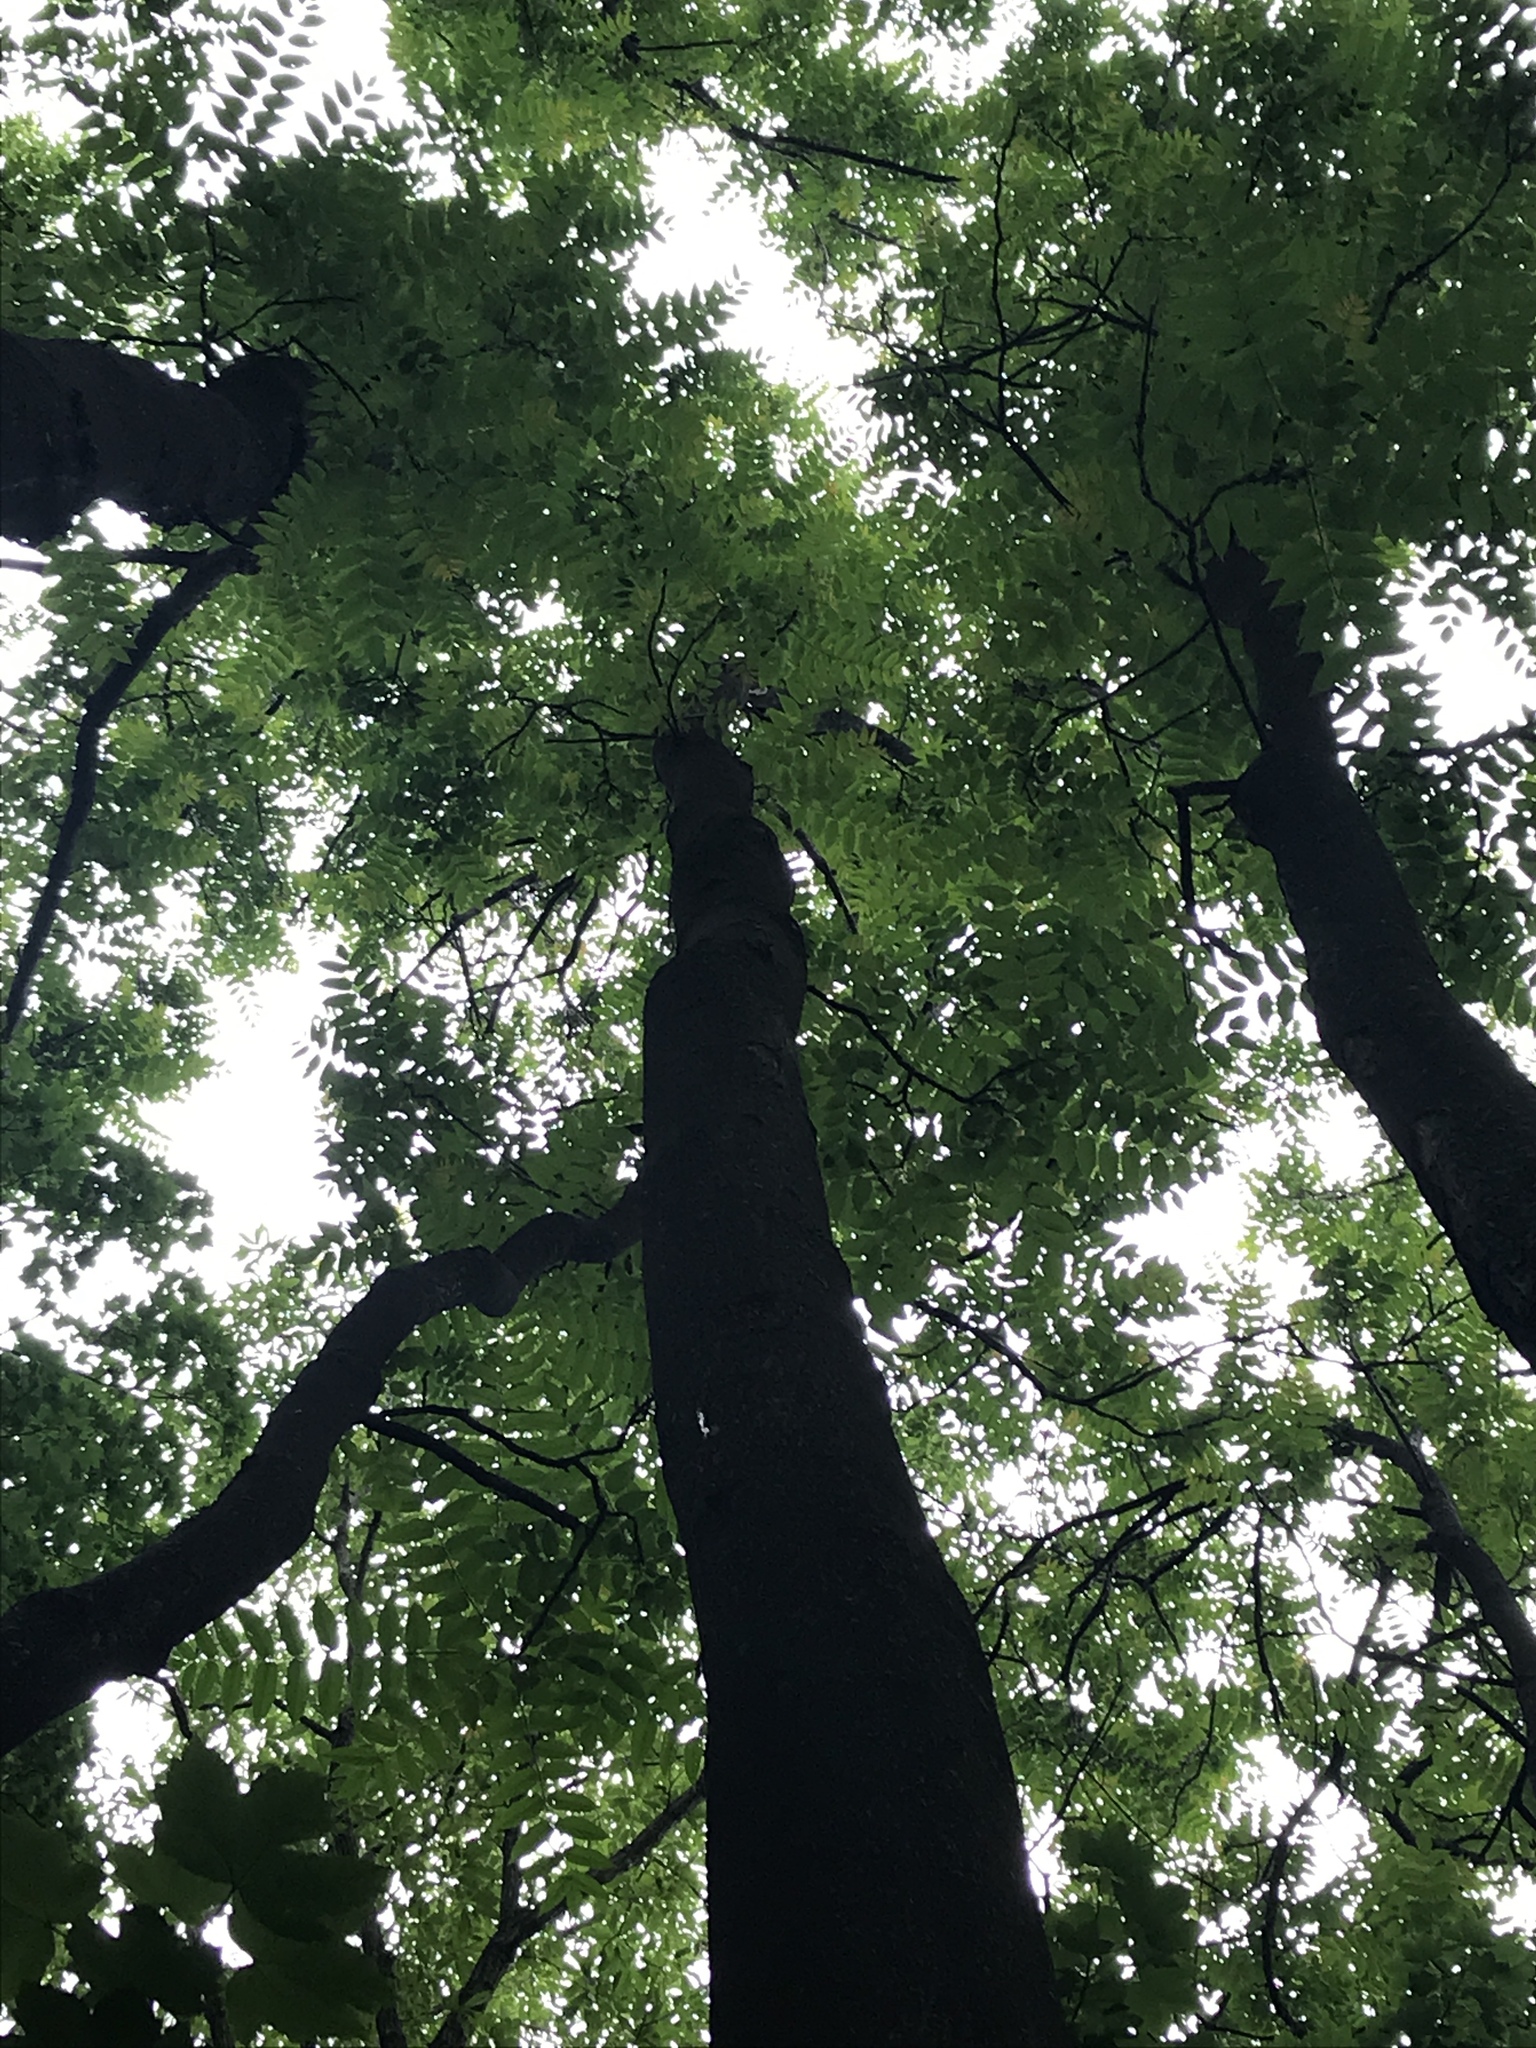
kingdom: Plantae
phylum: Tracheophyta
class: Magnoliopsida
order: Sapindales
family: Simaroubaceae
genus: Ailanthus
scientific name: Ailanthus altissima
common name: Tree-of-heaven
